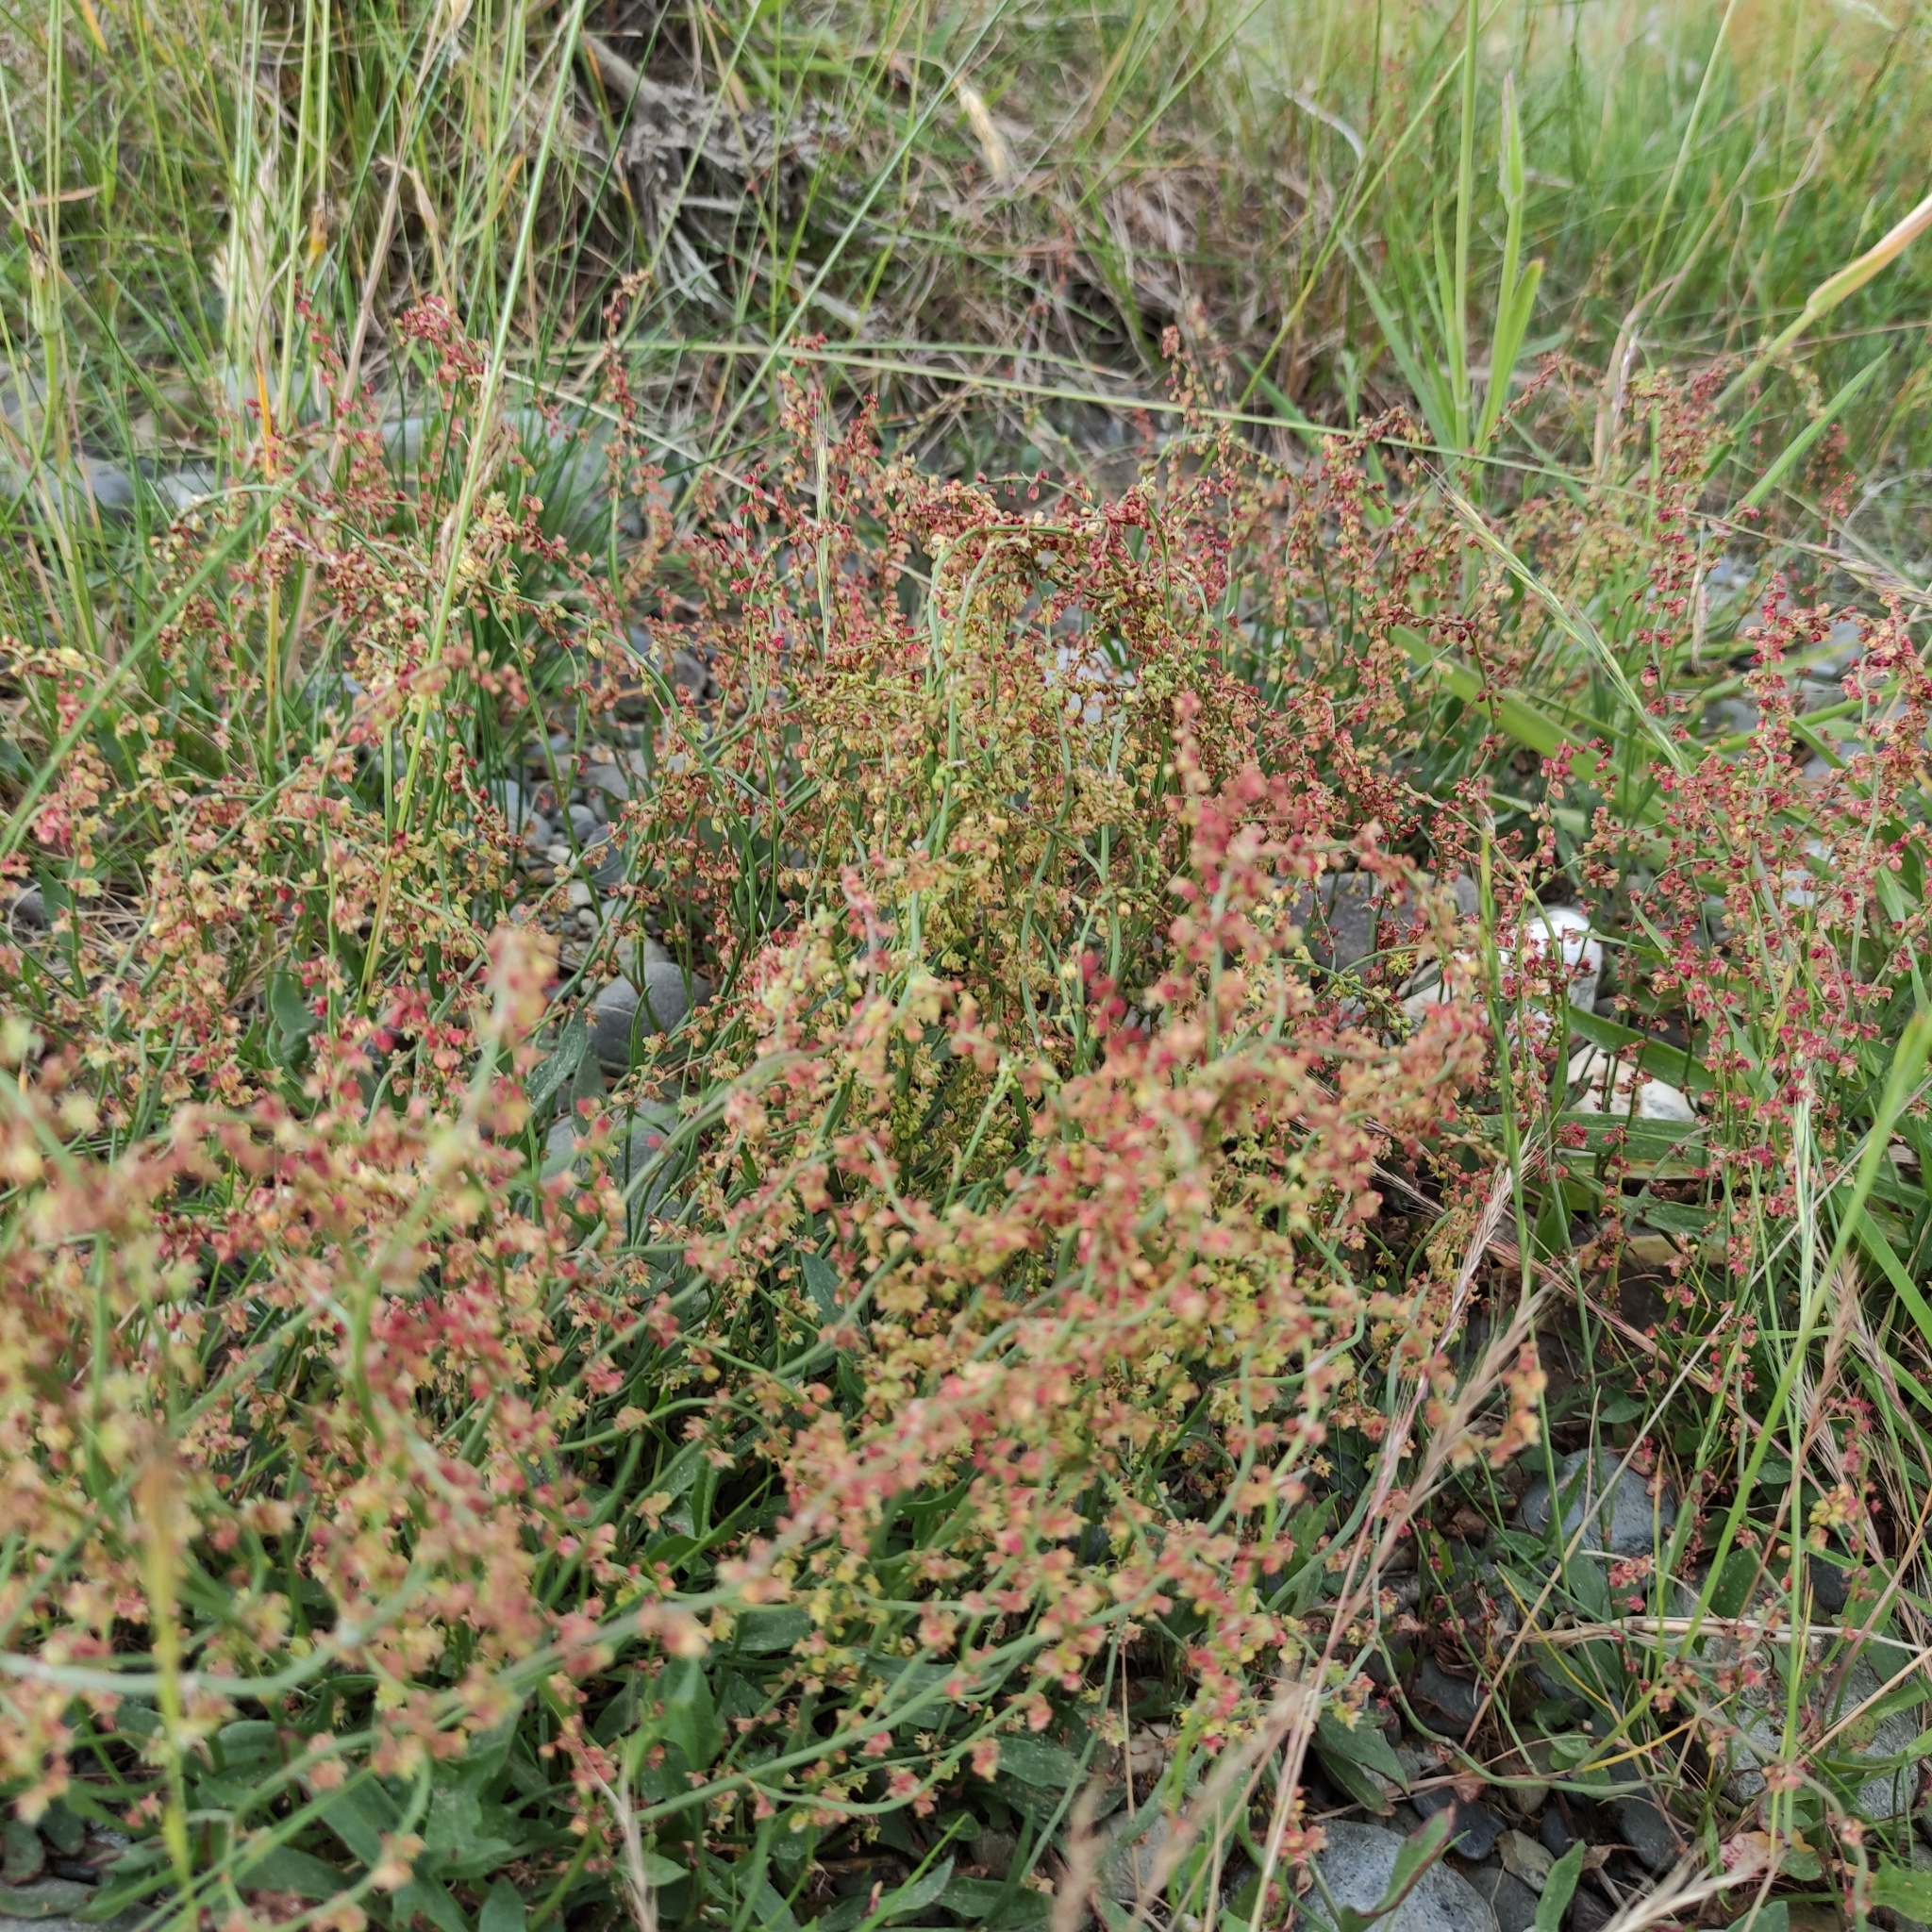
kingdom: Plantae
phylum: Tracheophyta
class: Magnoliopsida
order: Caryophyllales
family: Polygonaceae
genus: Rumex
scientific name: Rumex acetosella
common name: Common sheep sorrel
